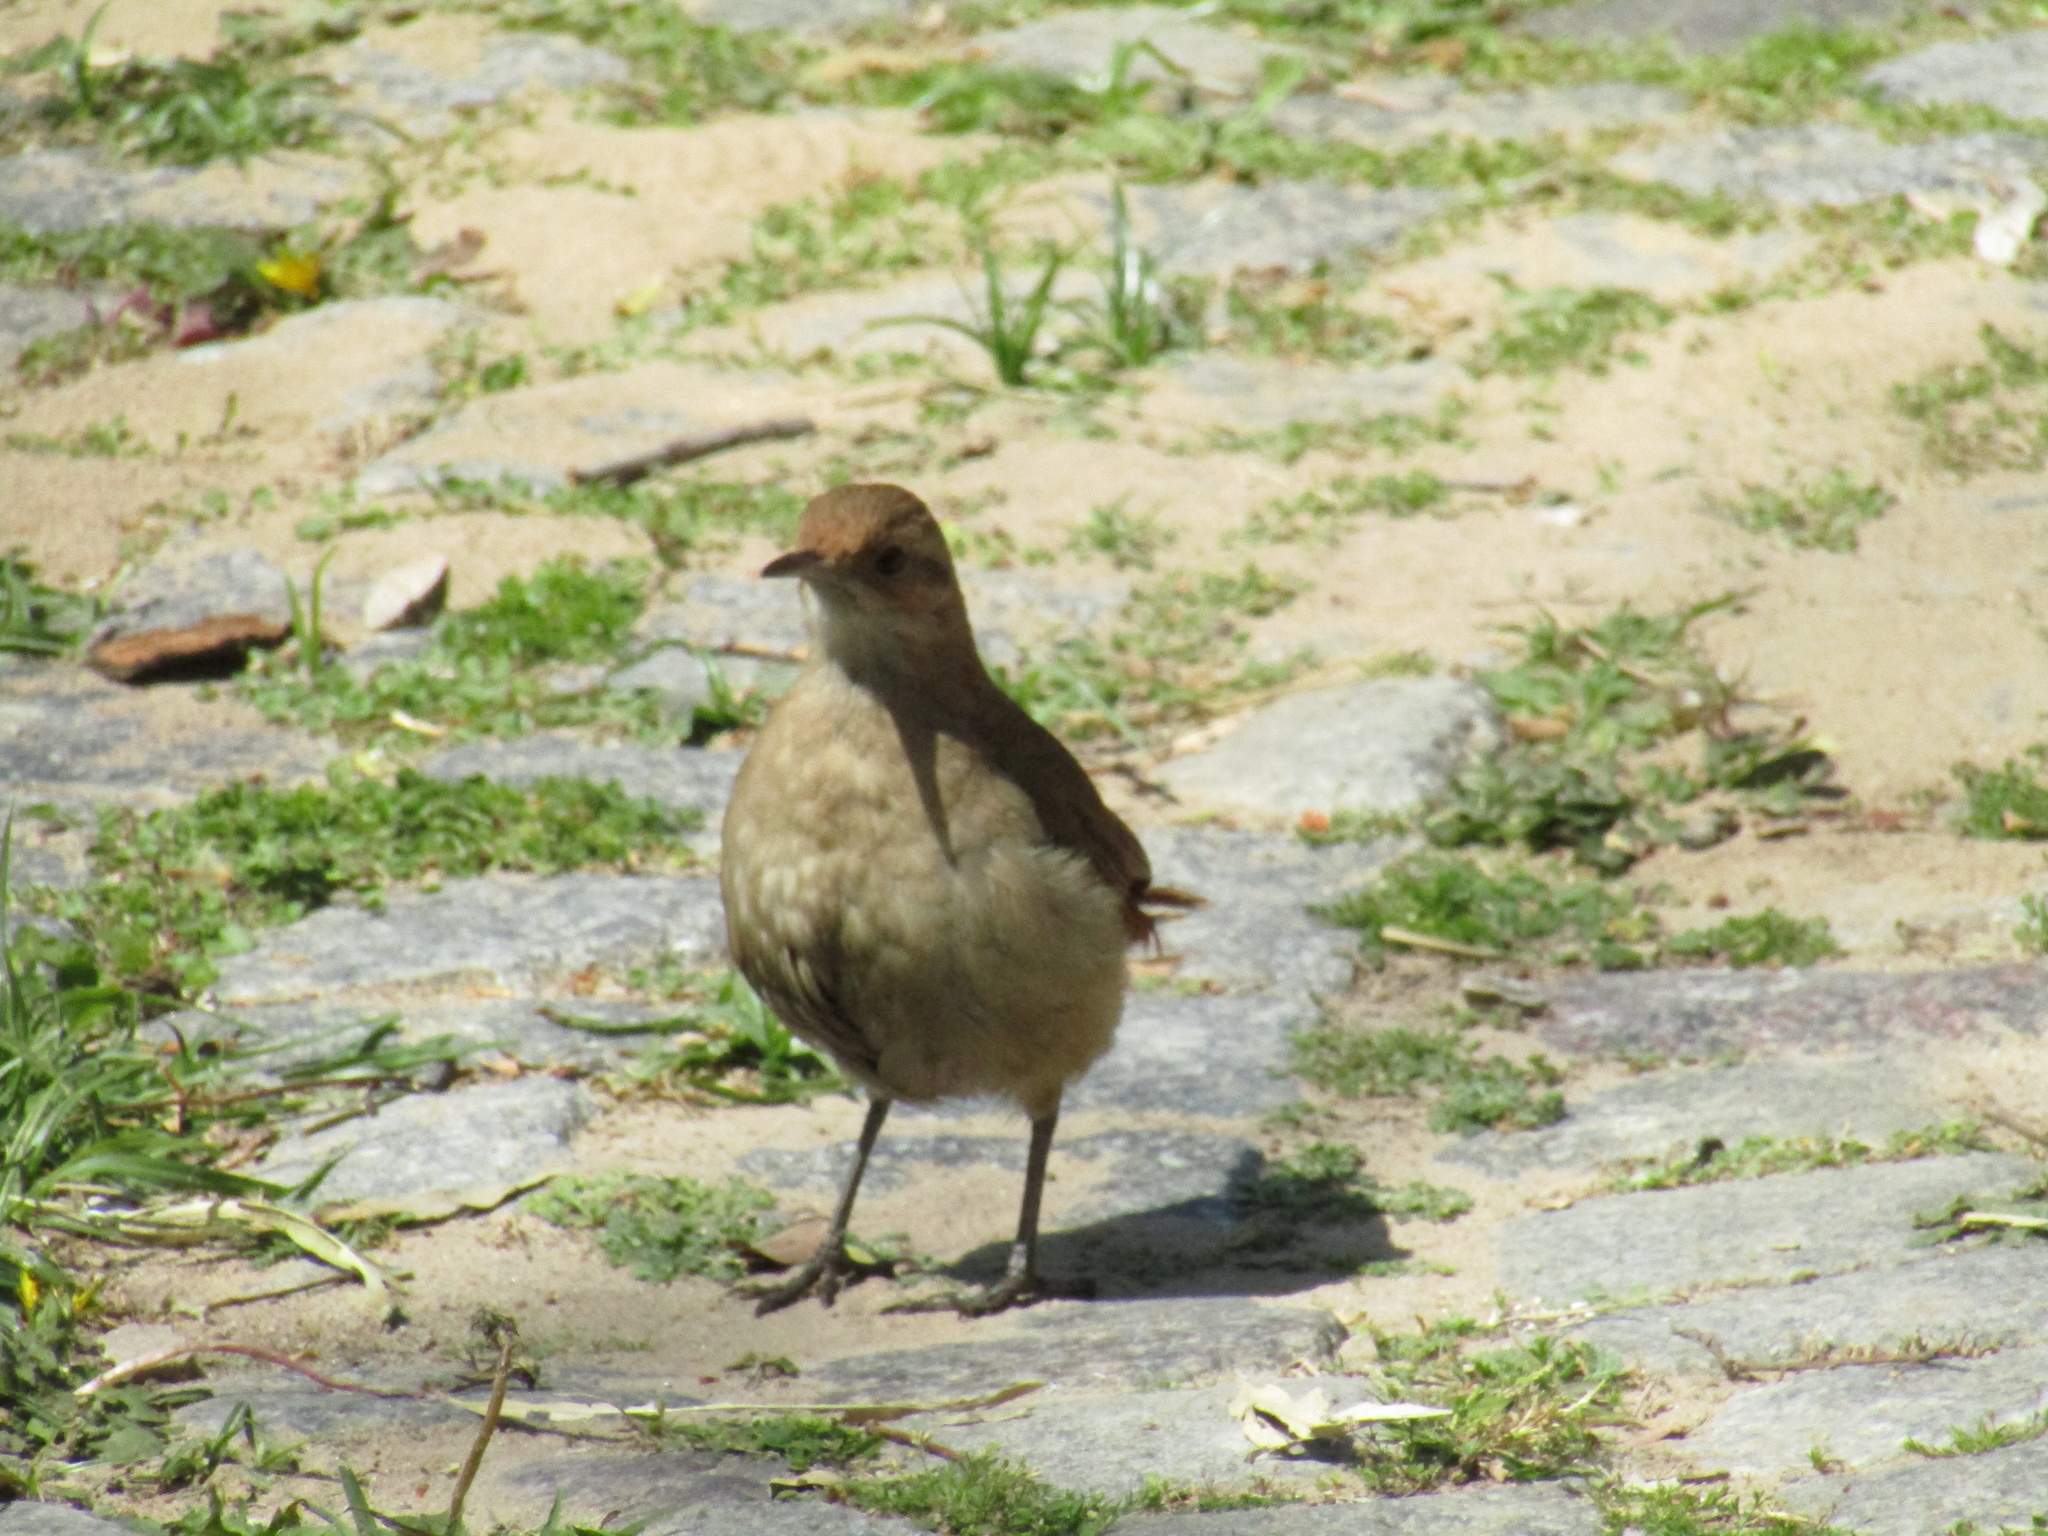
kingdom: Animalia
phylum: Chordata
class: Aves
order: Passeriformes
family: Furnariidae
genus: Furnarius
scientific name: Furnarius rufus
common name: Rufous hornero
